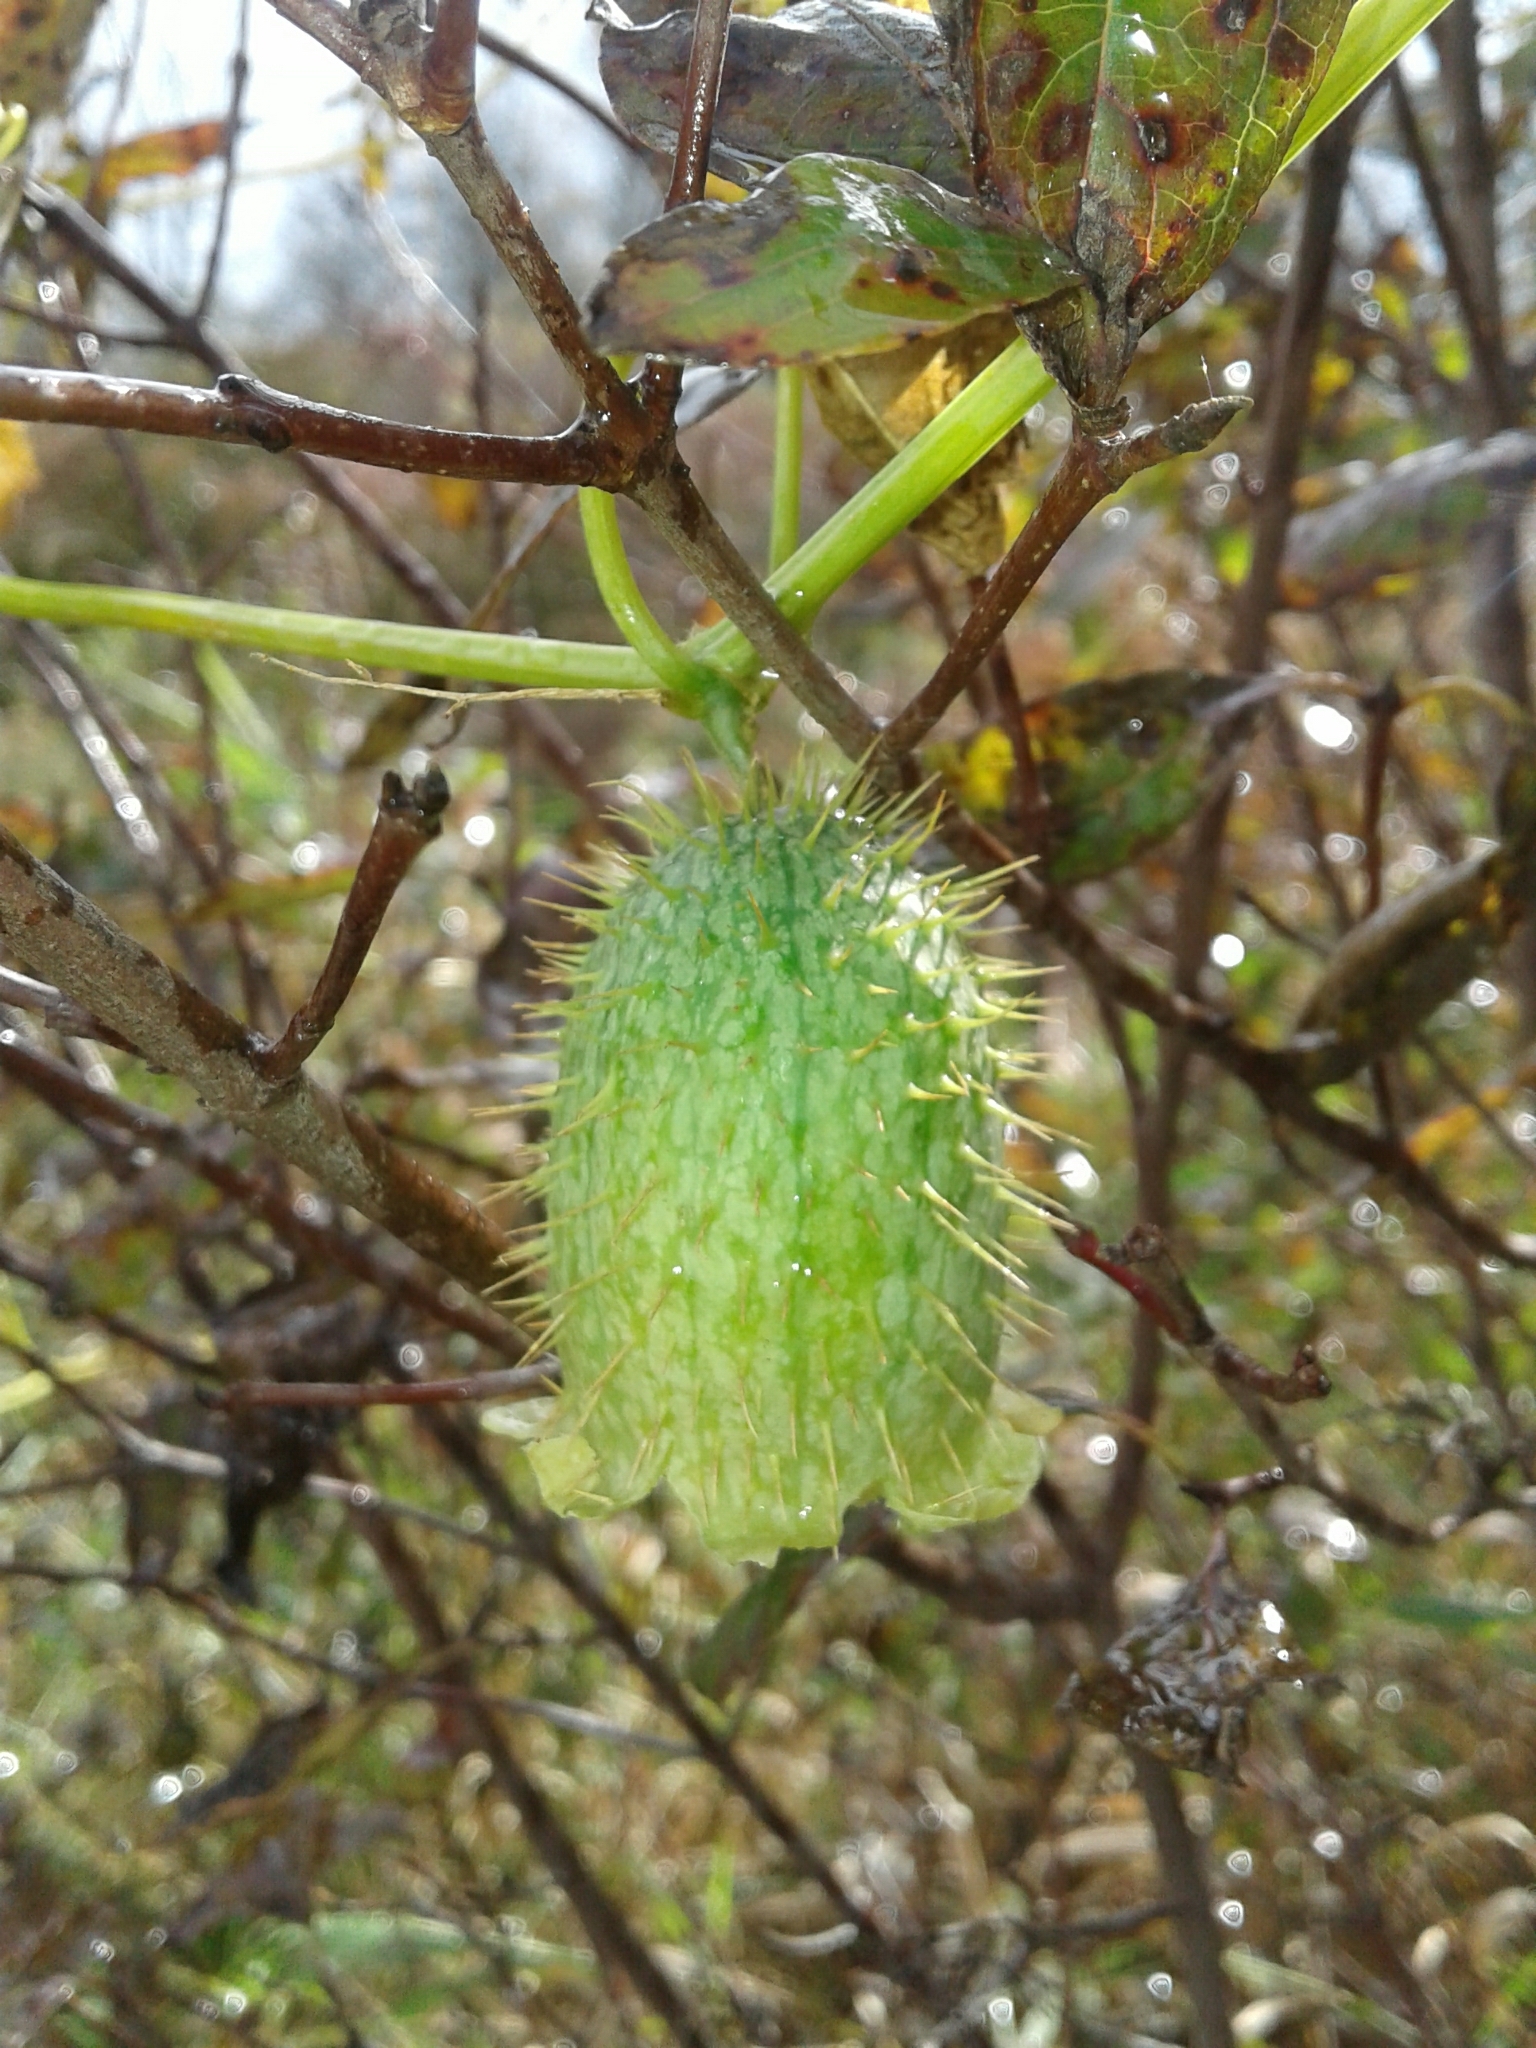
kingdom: Plantae
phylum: Tracheophyta
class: Magnoliopsida
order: Cucurbitales
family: Cucurbitaceae
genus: Echinocystis
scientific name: Echinocystis lobata
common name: Wild cucumber
